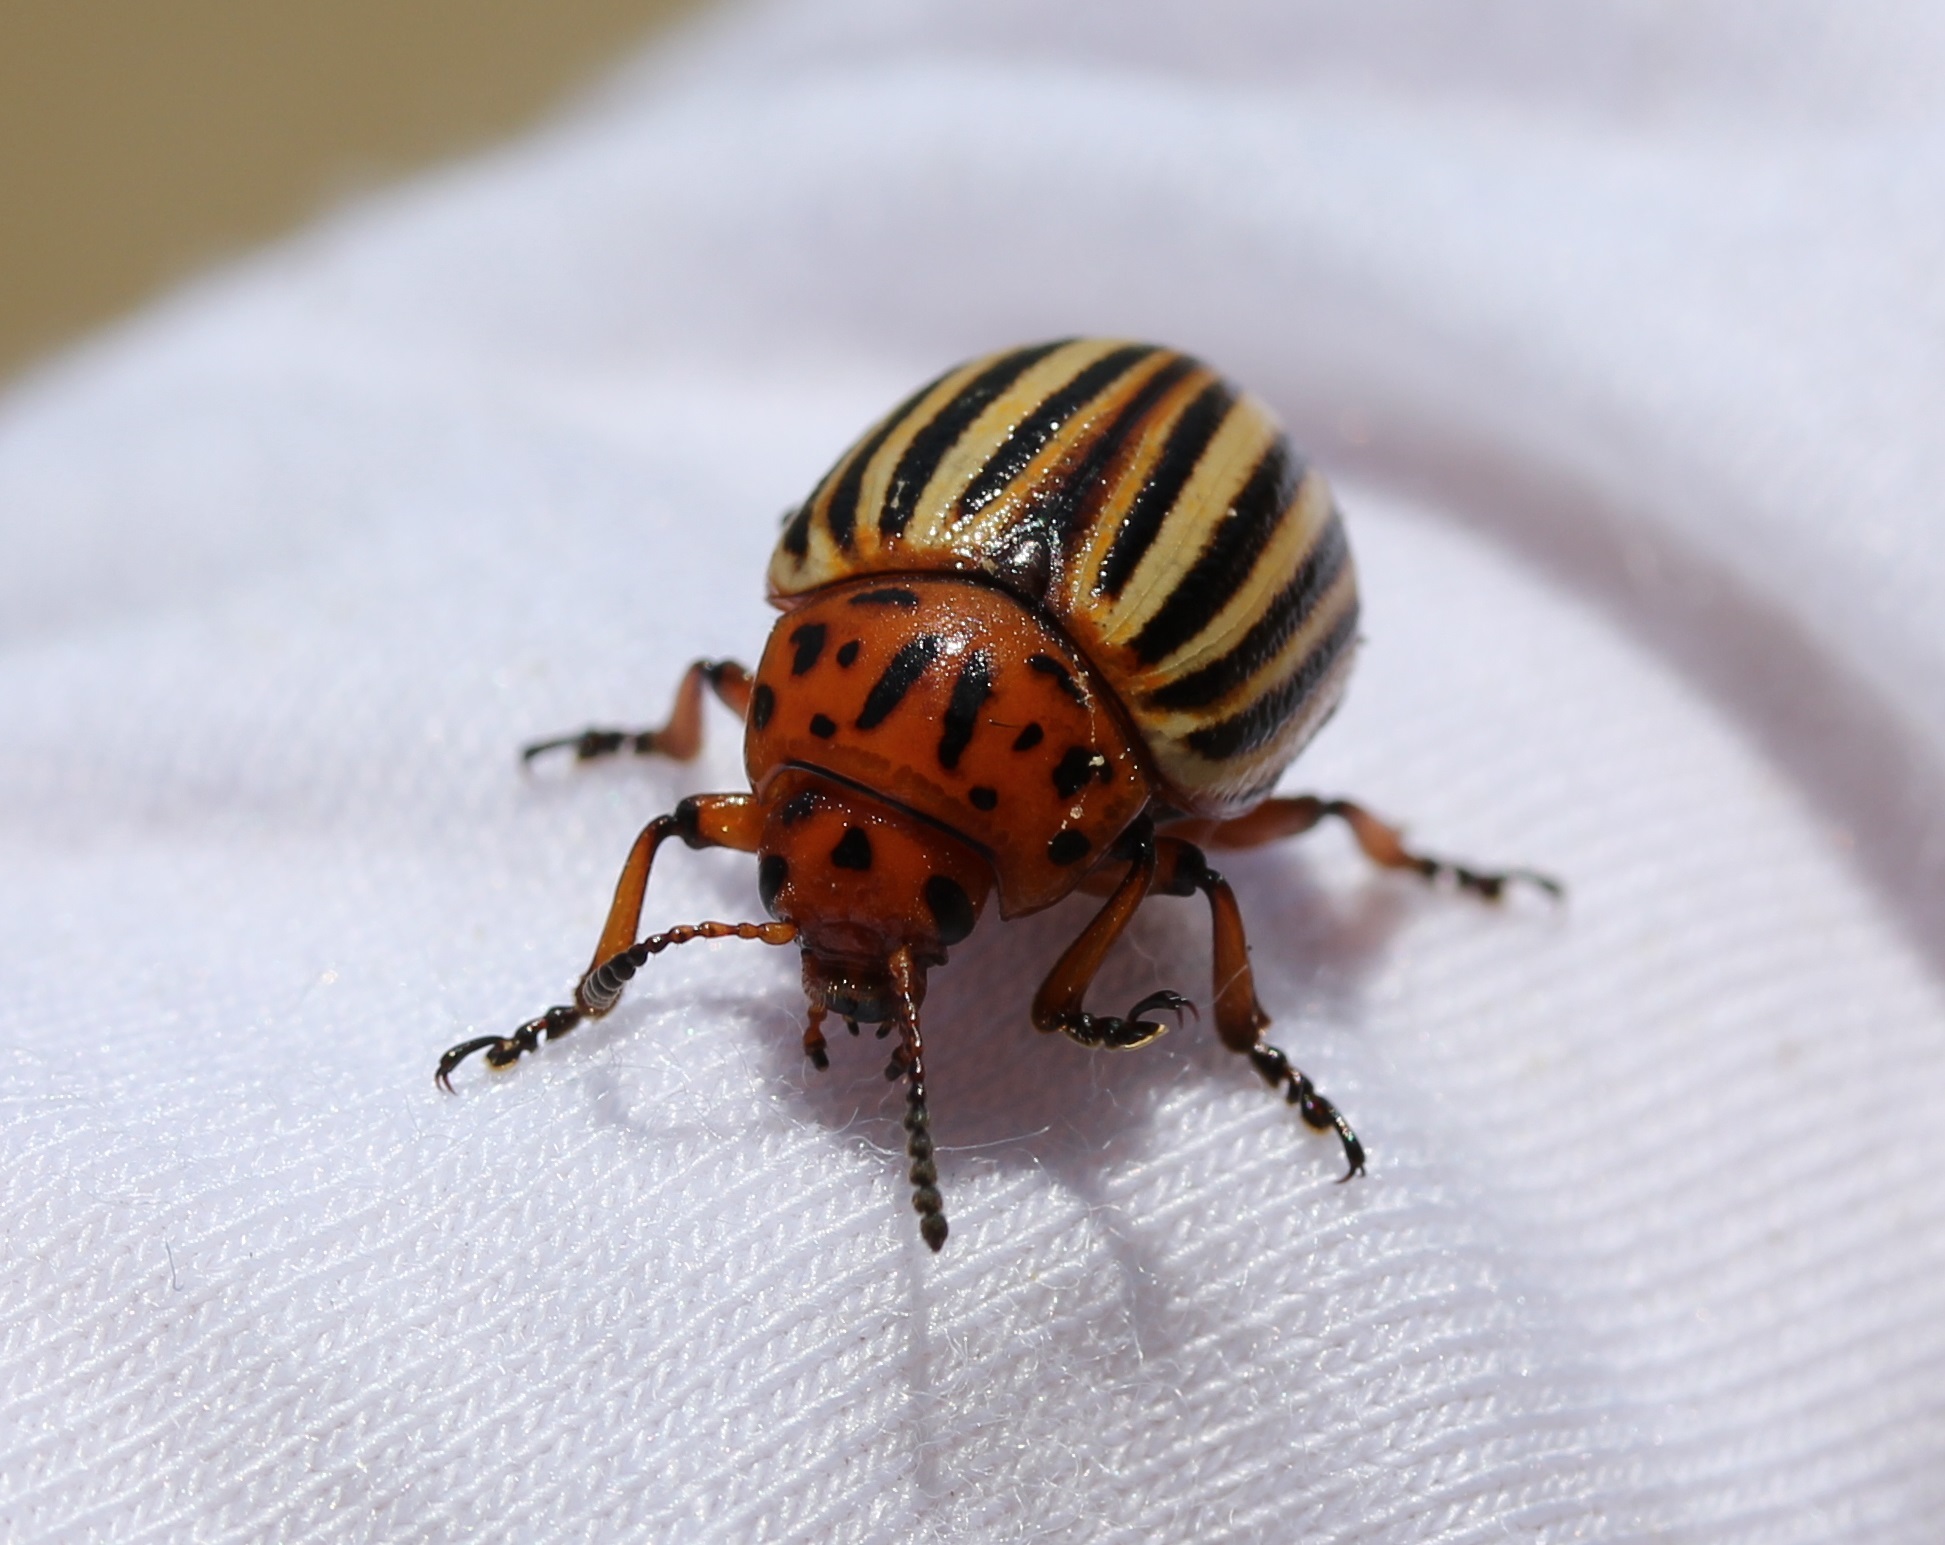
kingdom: Animalia
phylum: Arthropoda
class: Insecta
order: Coleoptera
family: Chrysomelidae
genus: Leptinotarsa
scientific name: Leptinotarsa decemlineata
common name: Colorado potato beetle
